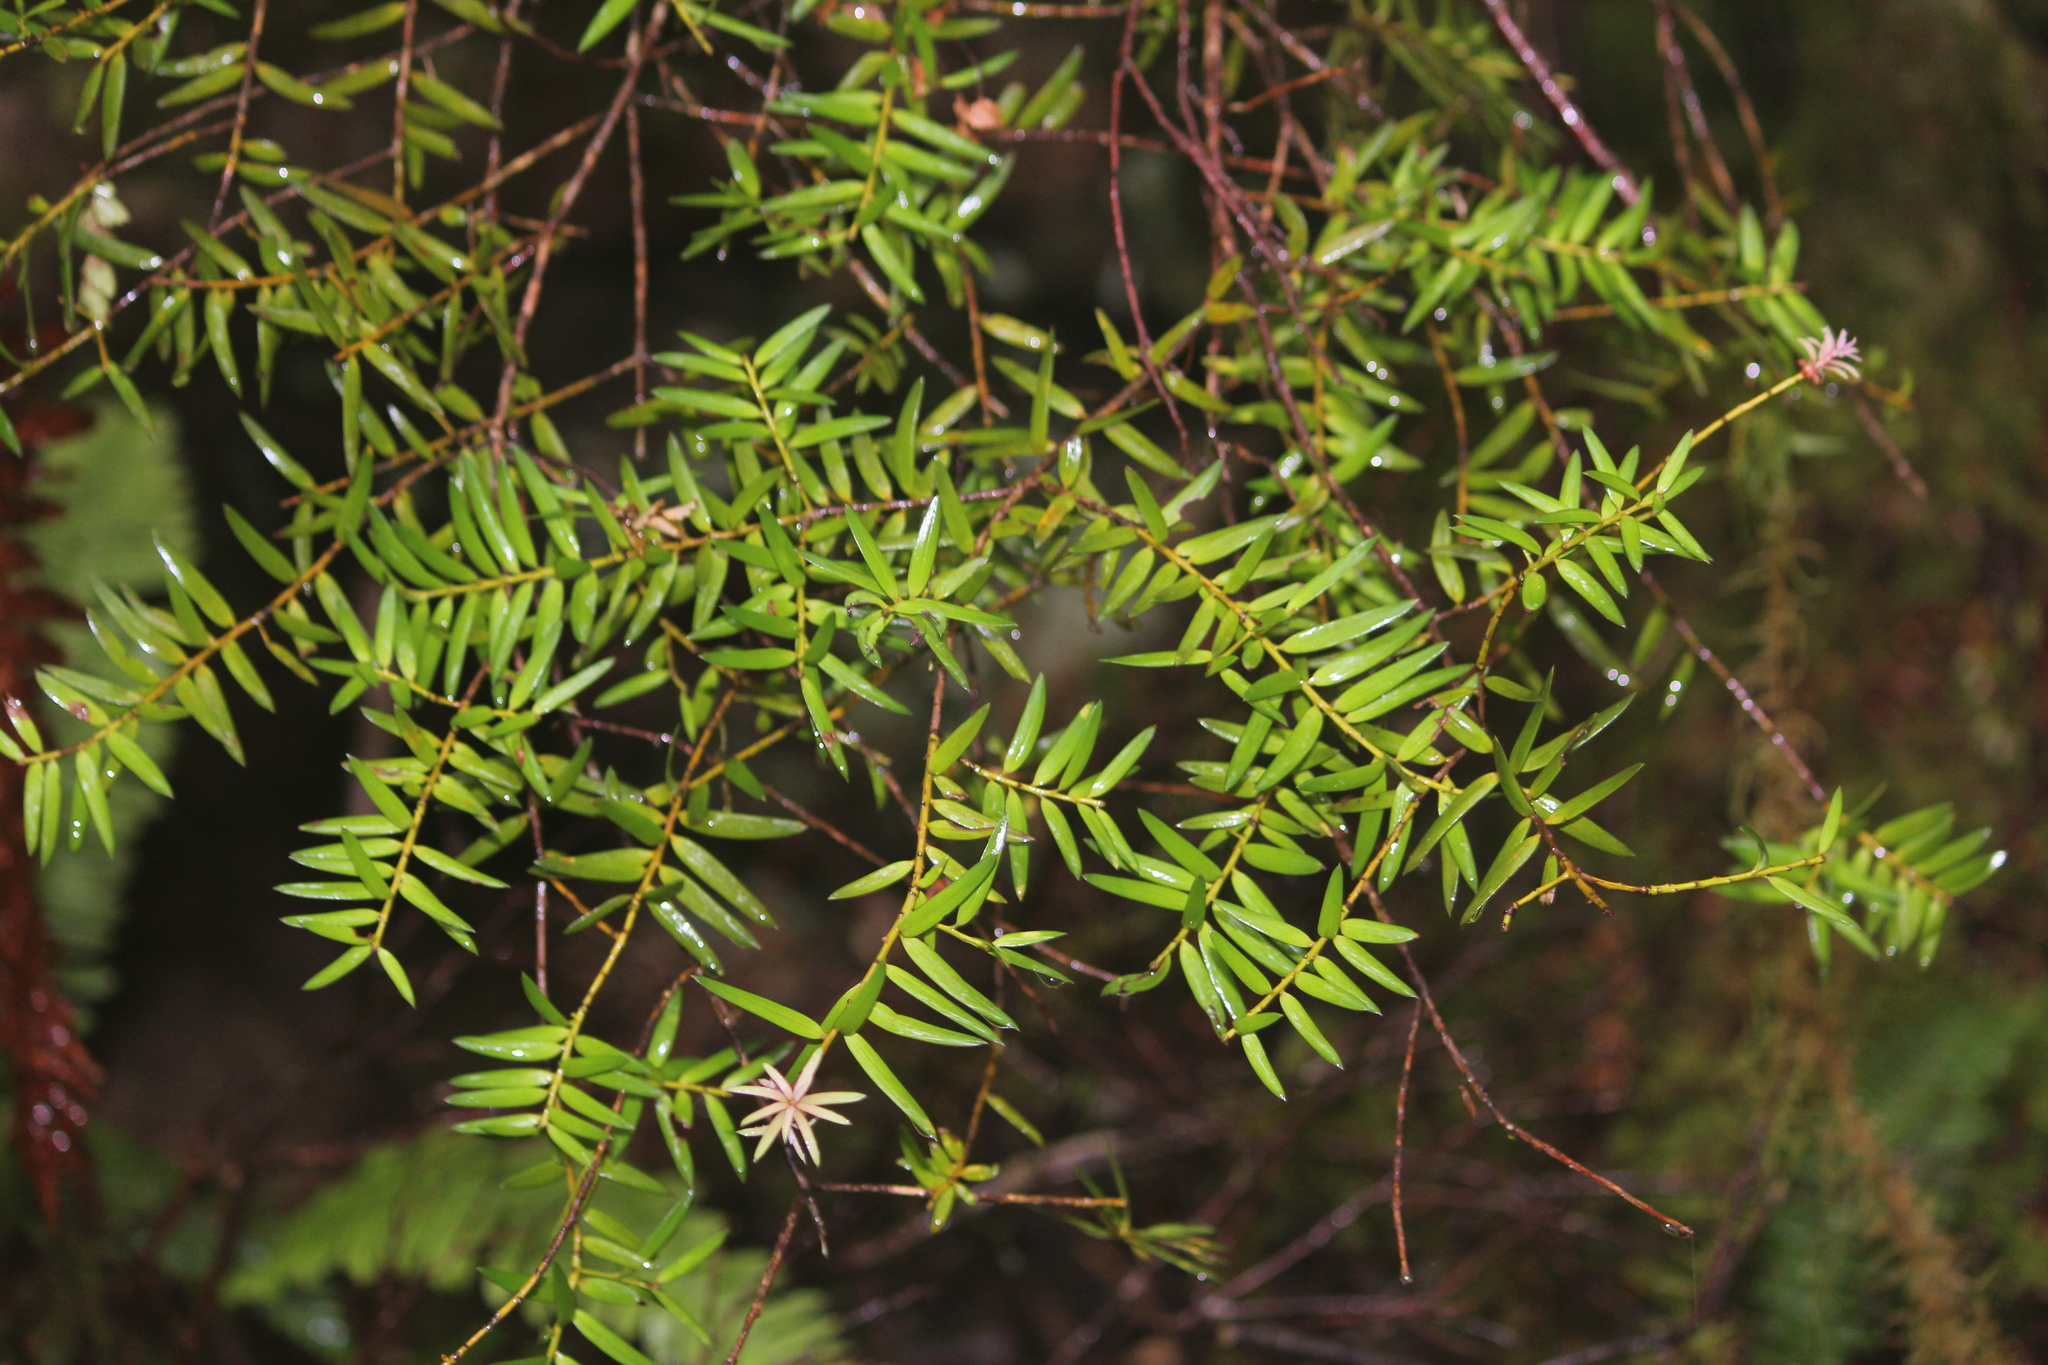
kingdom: Plantae
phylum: Tracheophyta
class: Pinopsida
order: Pinales
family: Podocarpaceae
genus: Podocarpus
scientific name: Podocarpus laetus
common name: Hall's totara
